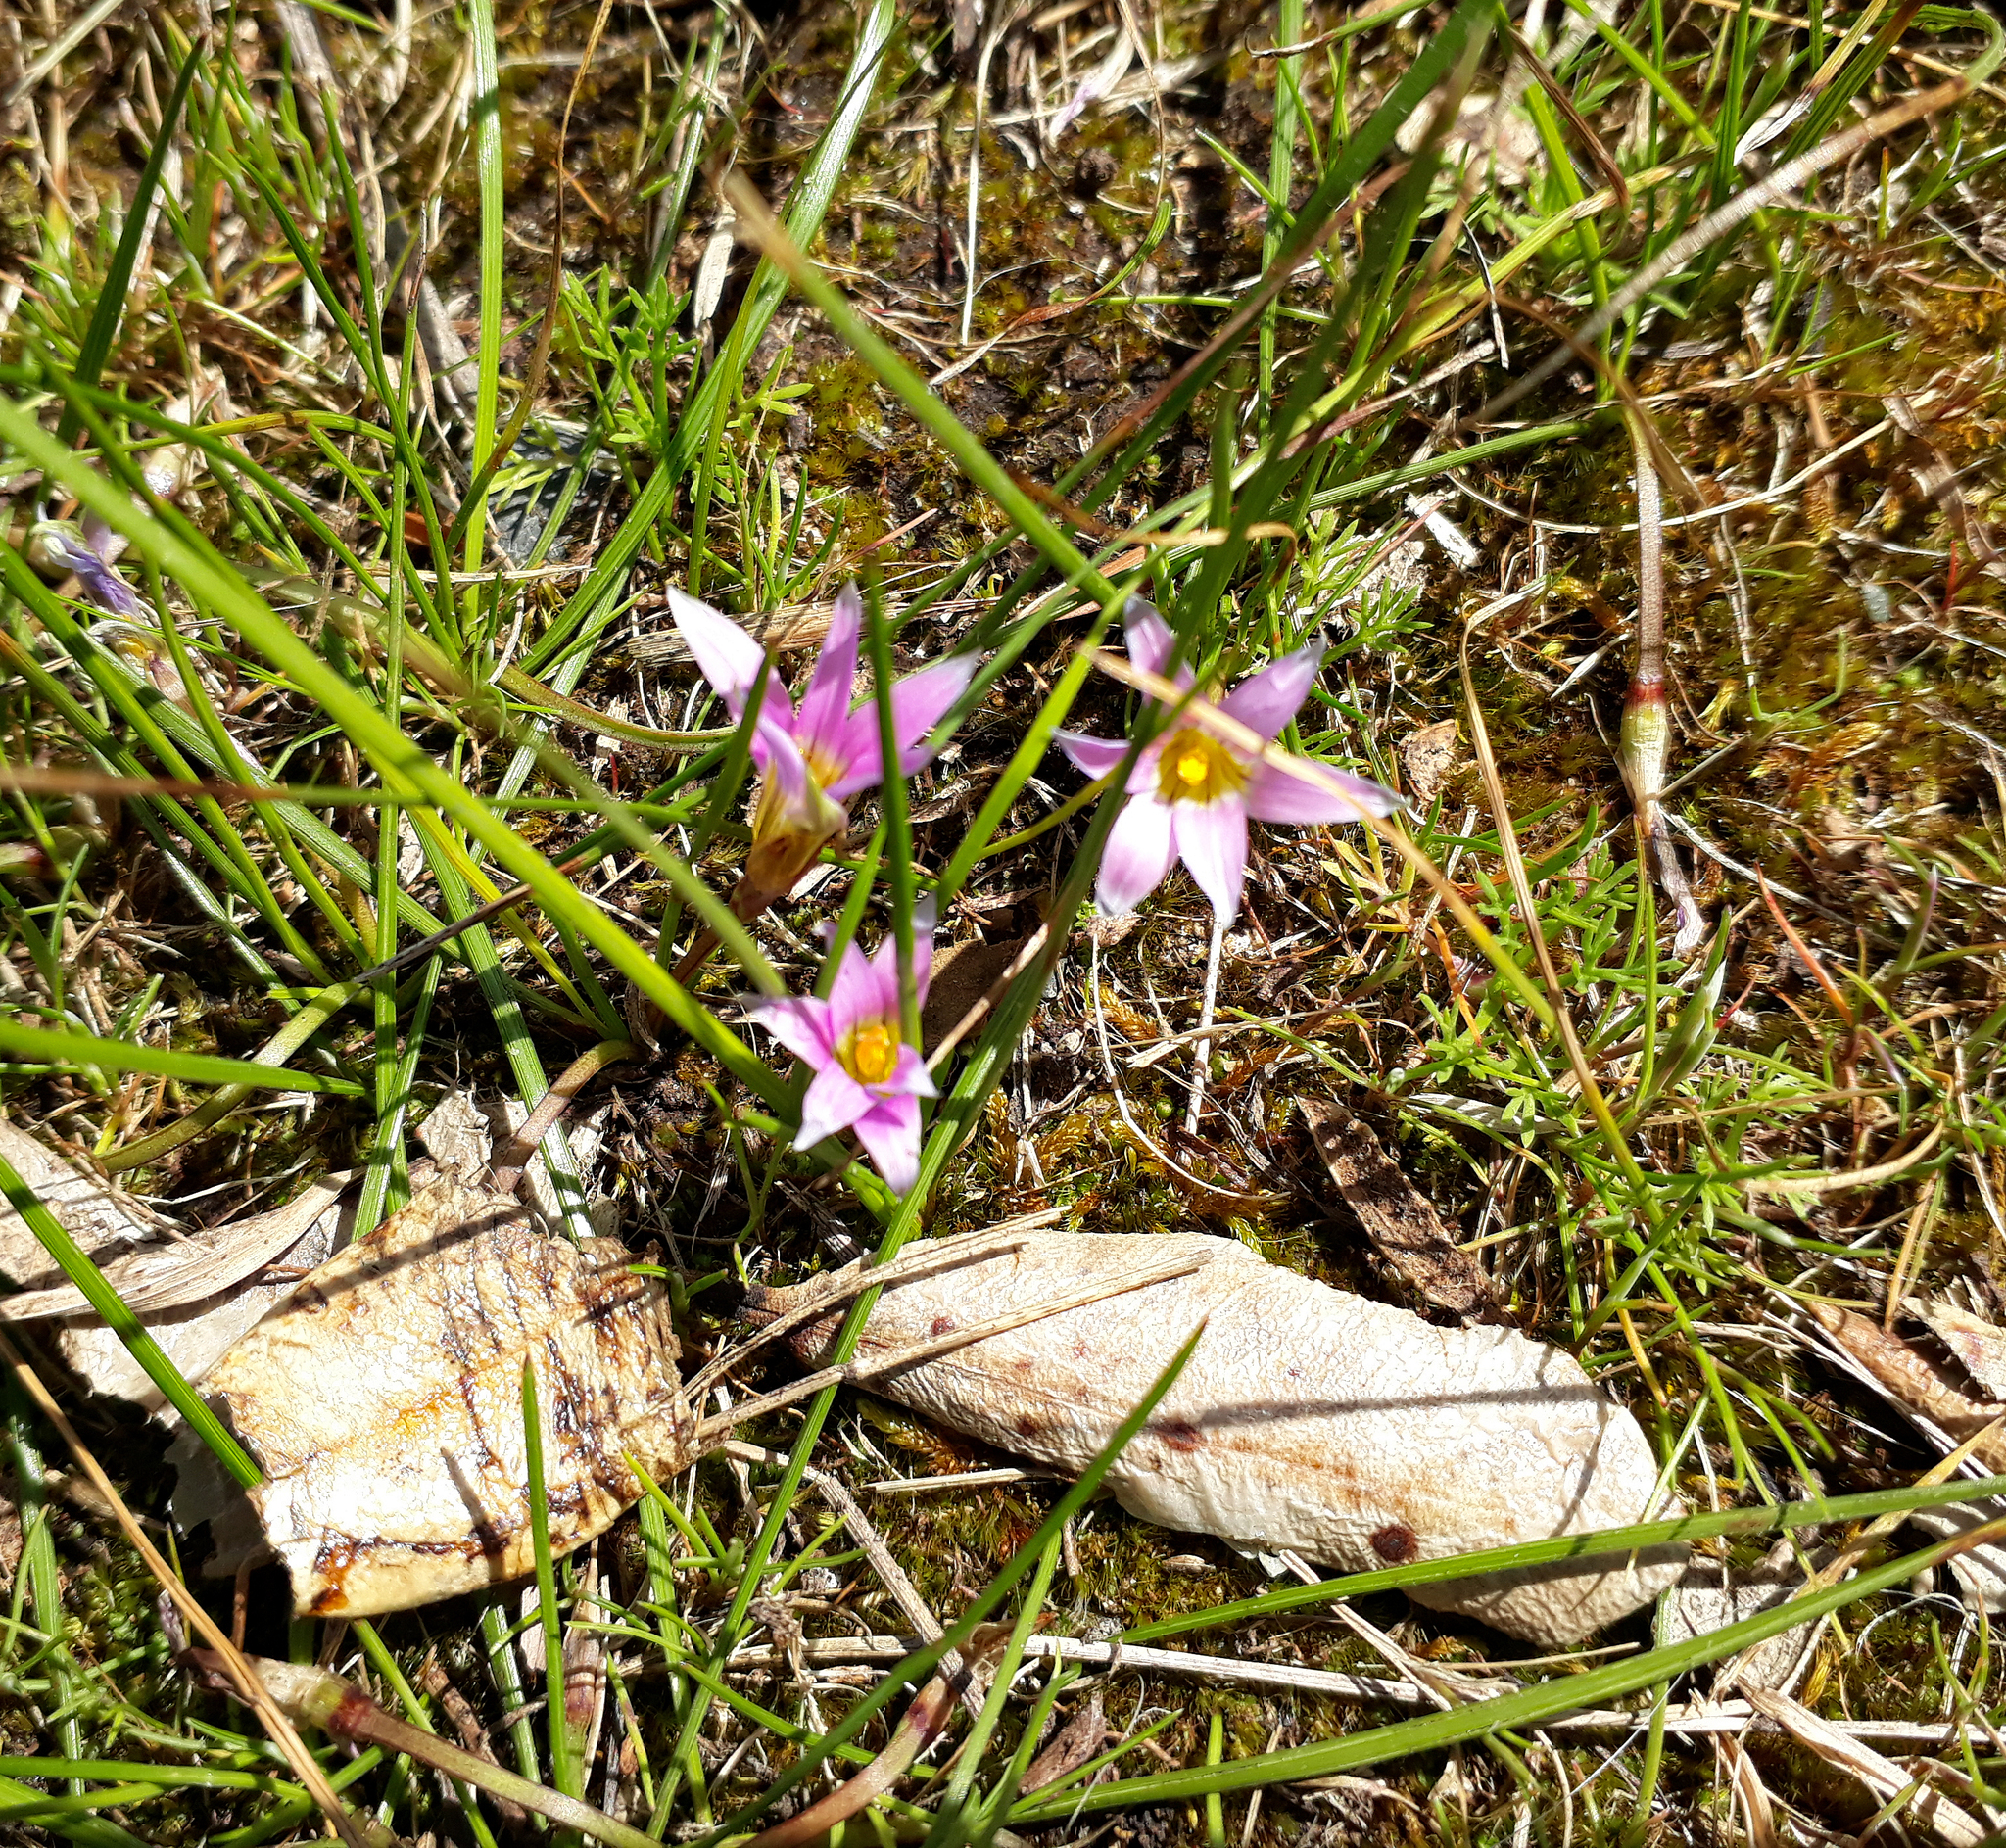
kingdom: Plantae
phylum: Tracheophyta
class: Liliopsida
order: Asparagales
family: Iridaceae
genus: Romulea
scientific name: Romulea rosea
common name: Oniongrass
